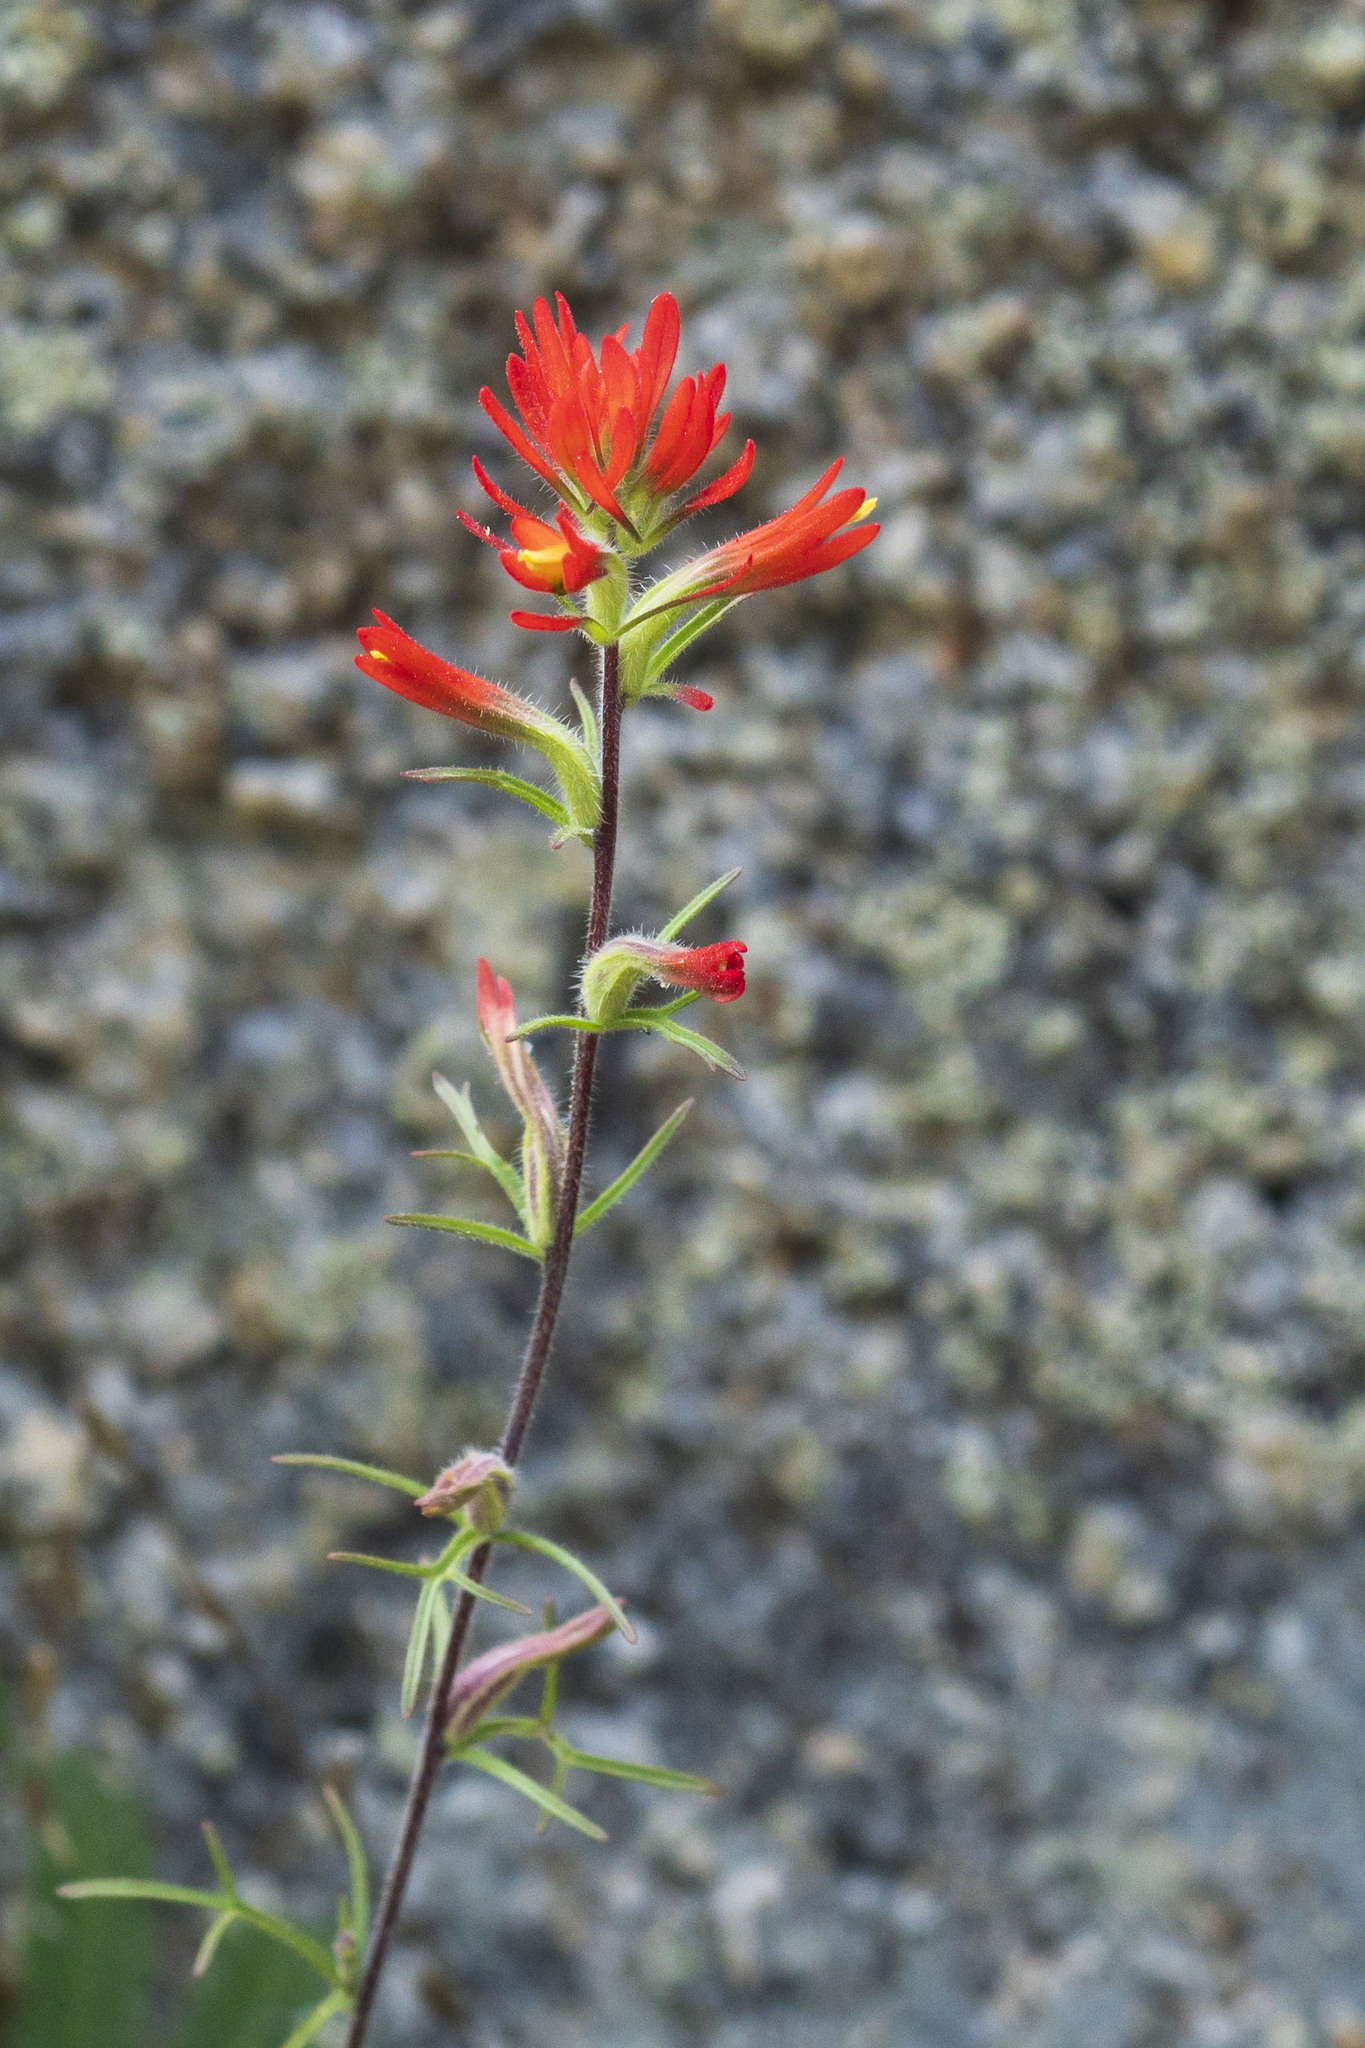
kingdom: Plantae
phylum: Tracheophyta
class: Magnoliopsida
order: Lamiales
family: Orobanchaceae
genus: Castilleja
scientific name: Castilleja bryantii
